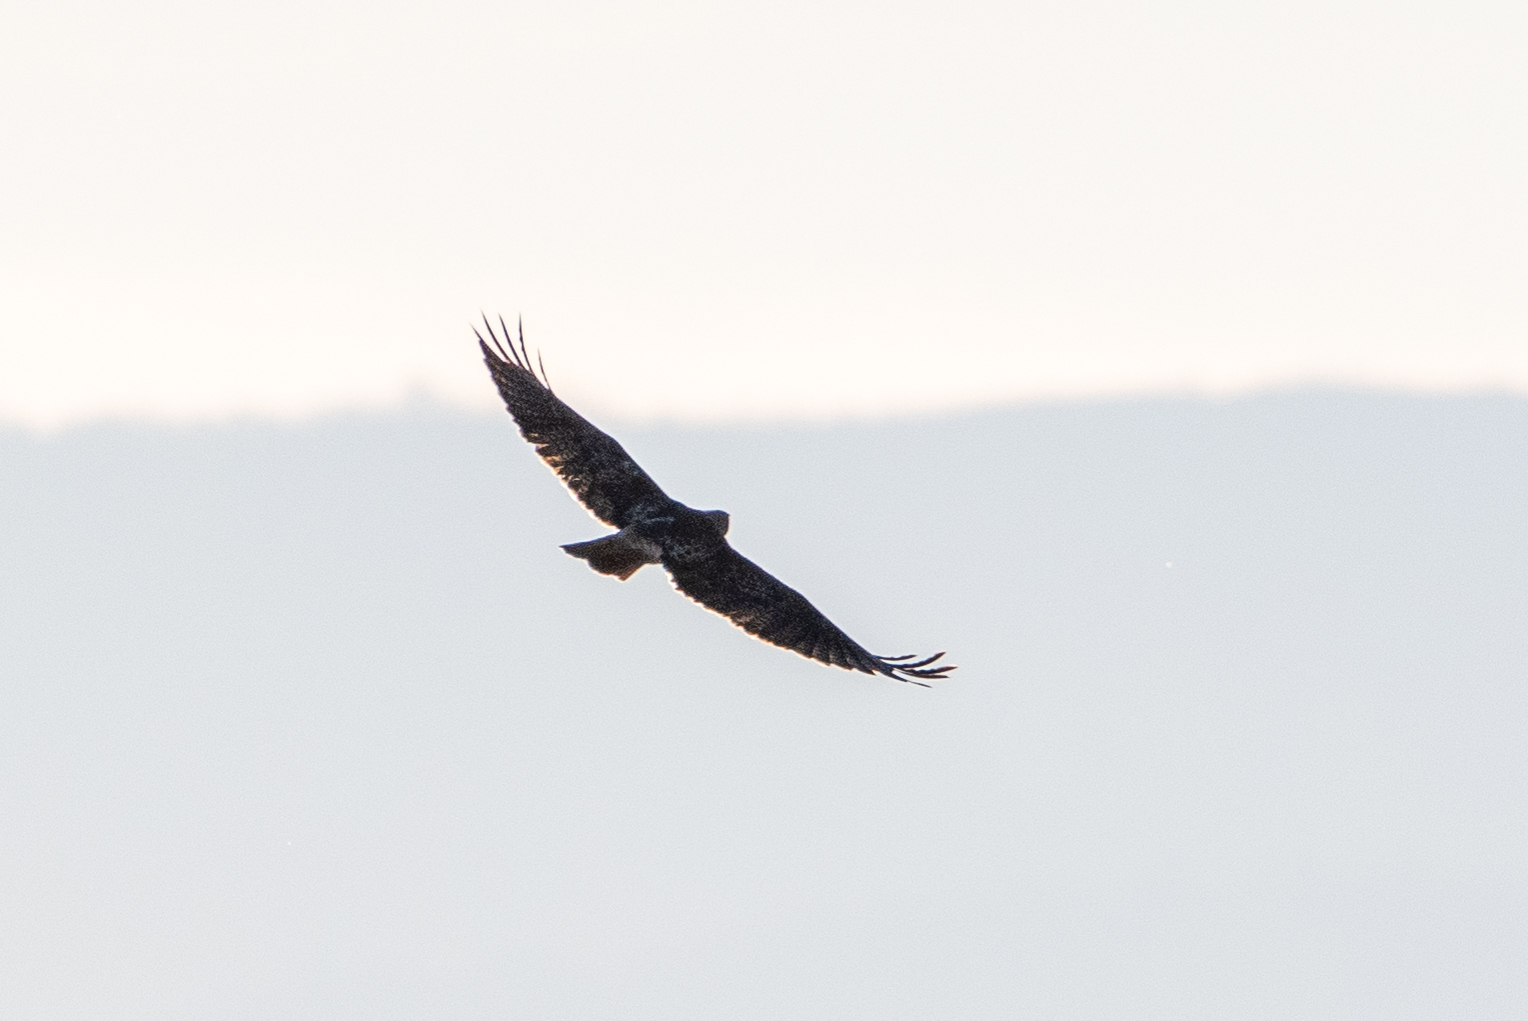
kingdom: Animalia
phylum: Chordata
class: Aves
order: Accipitriformes
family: Accipitridae
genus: Buteo
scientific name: Buteo jamaicensis
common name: Red-tailed hawk
